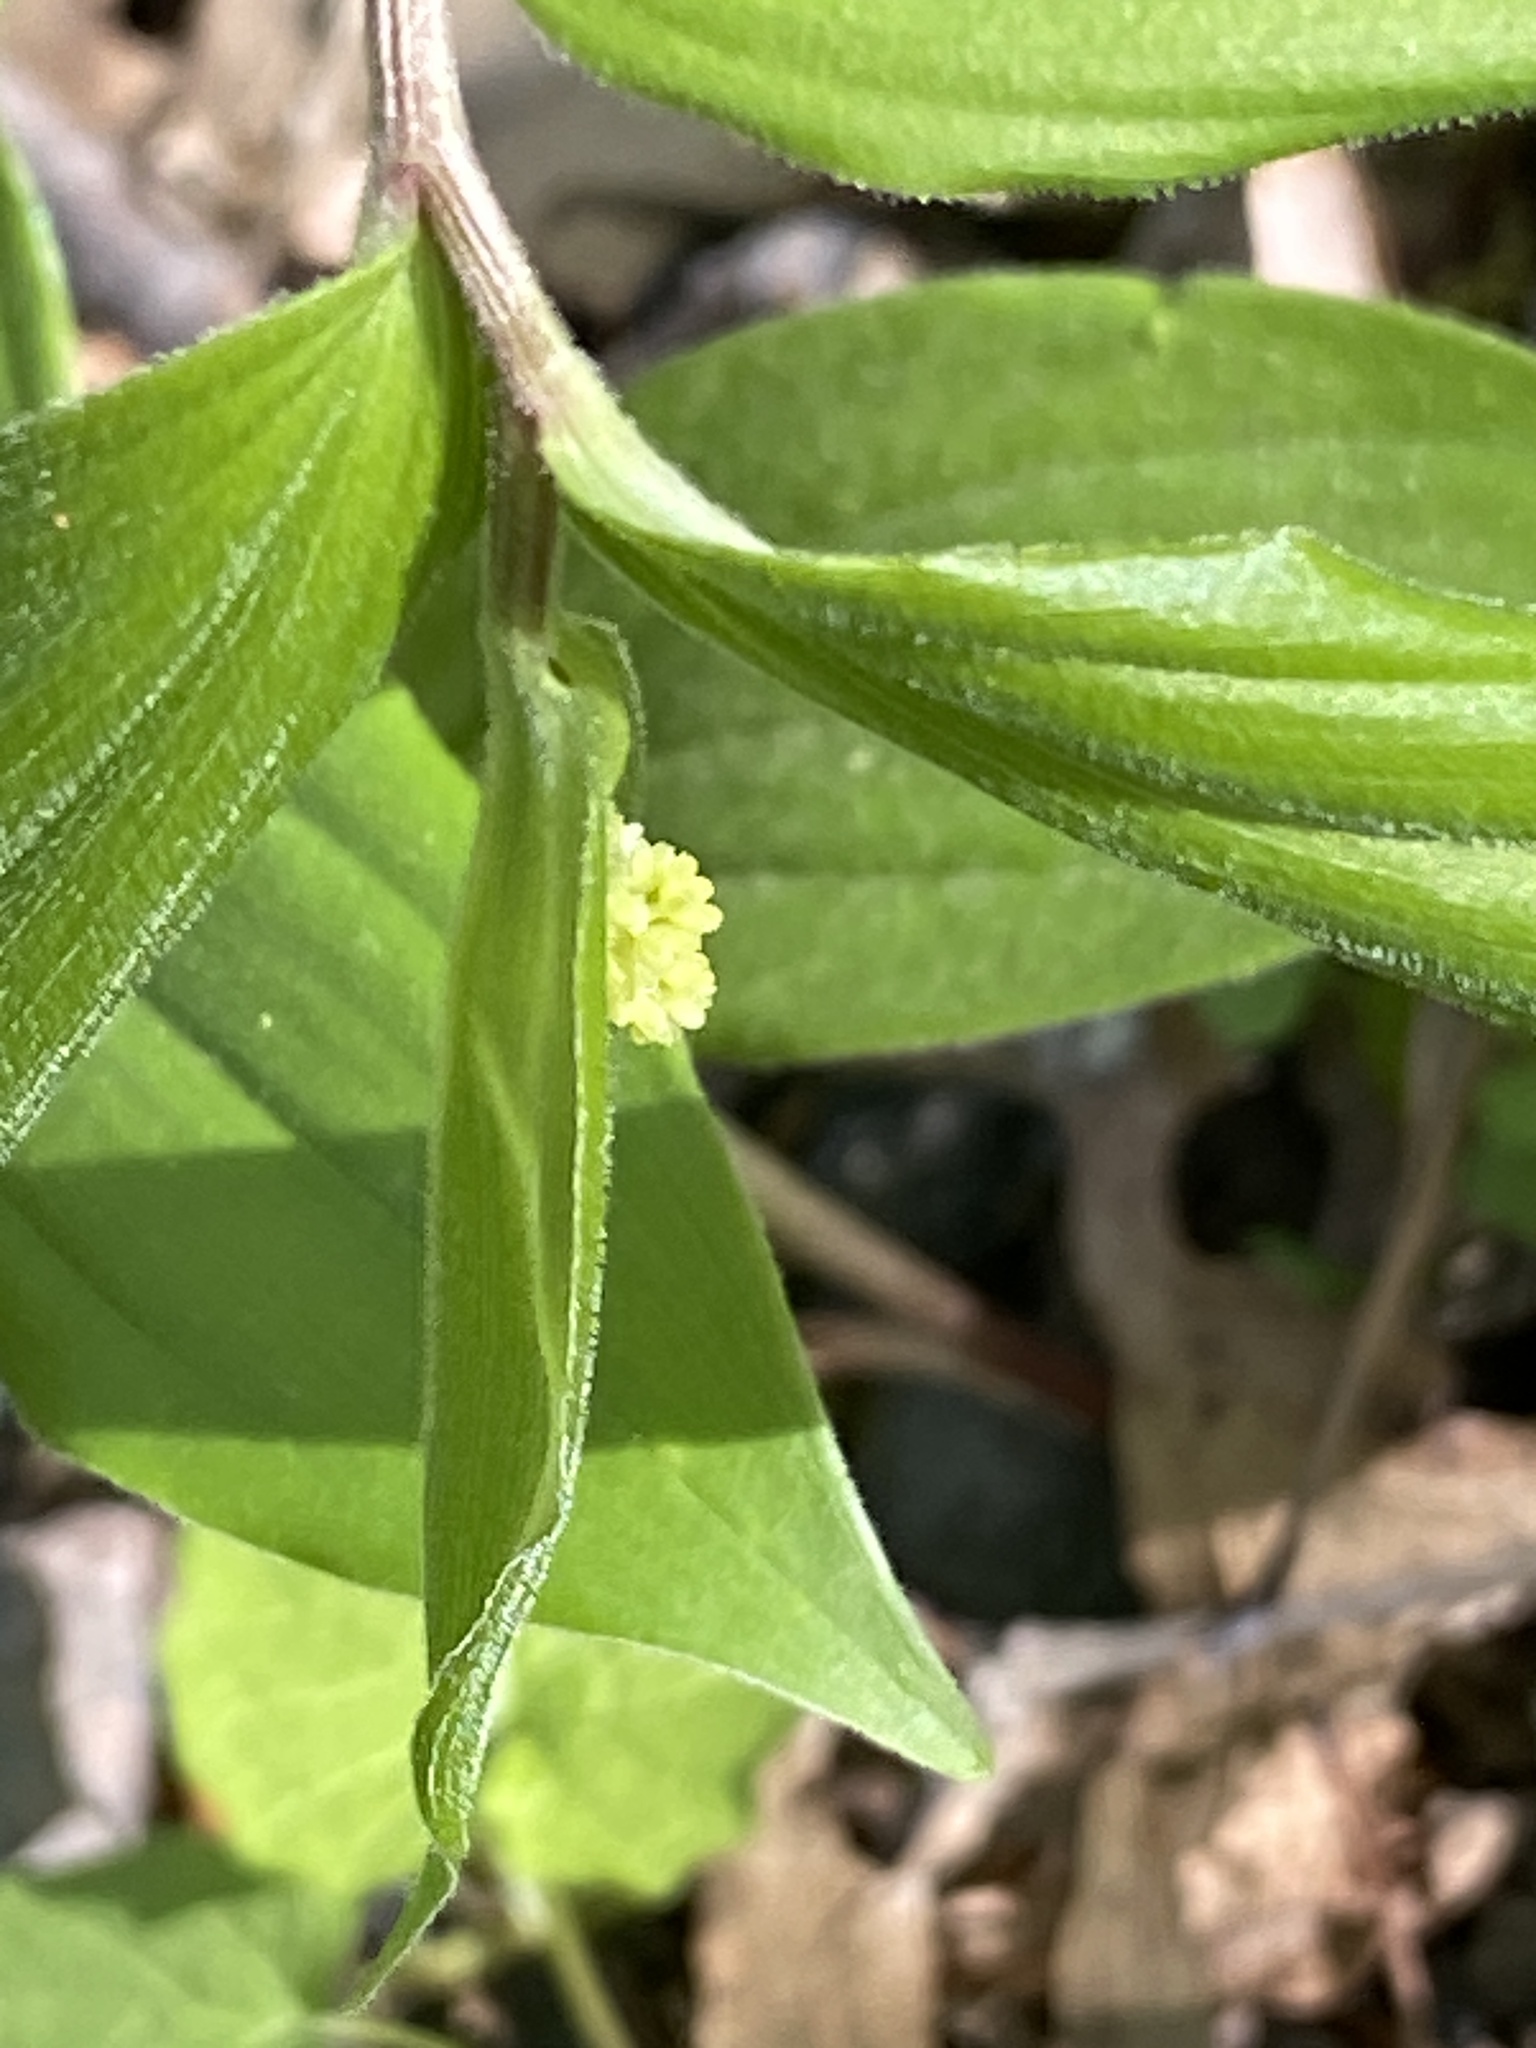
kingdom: Plantae
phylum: Tracheophyta
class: Liliopsida
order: Asparagales
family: Asparagaceae
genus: Maianthemum
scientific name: Maianthemum racemosum
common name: False spikenard
